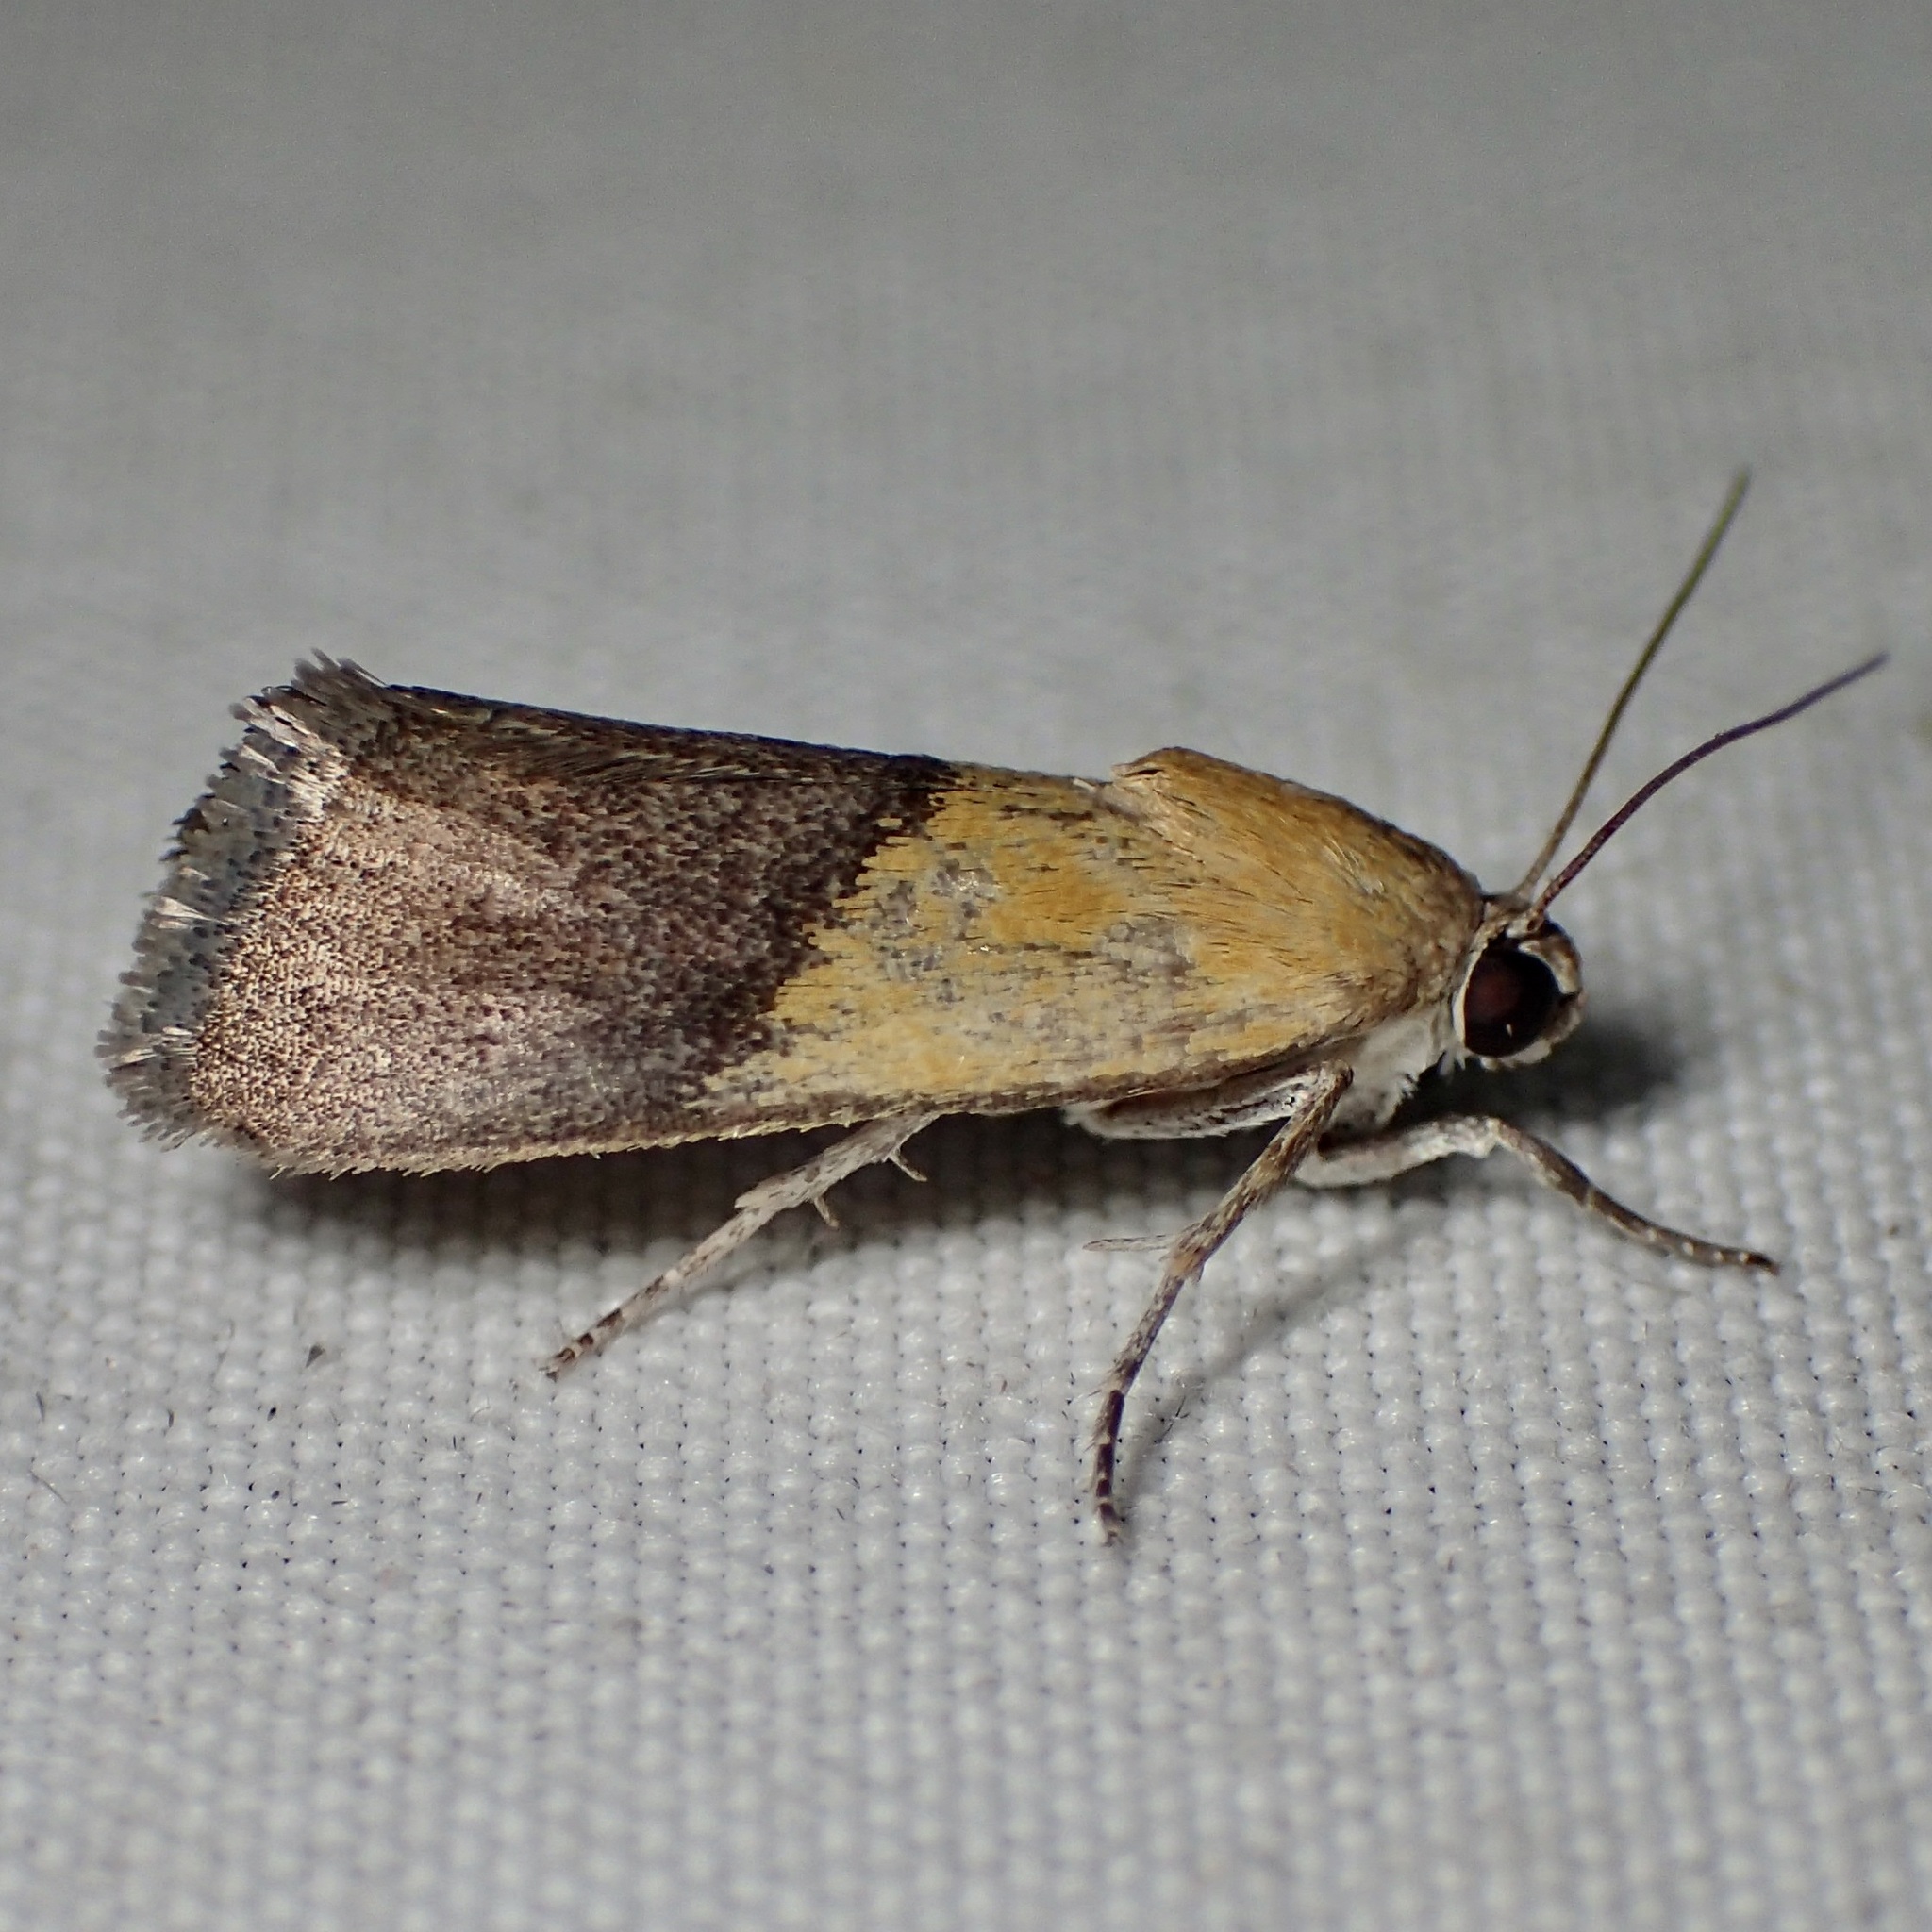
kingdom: Animalia
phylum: Arthropoda
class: Insecta
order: Lepidoptera
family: Noctuidae
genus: Acontia
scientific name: Acontia bicolorata
